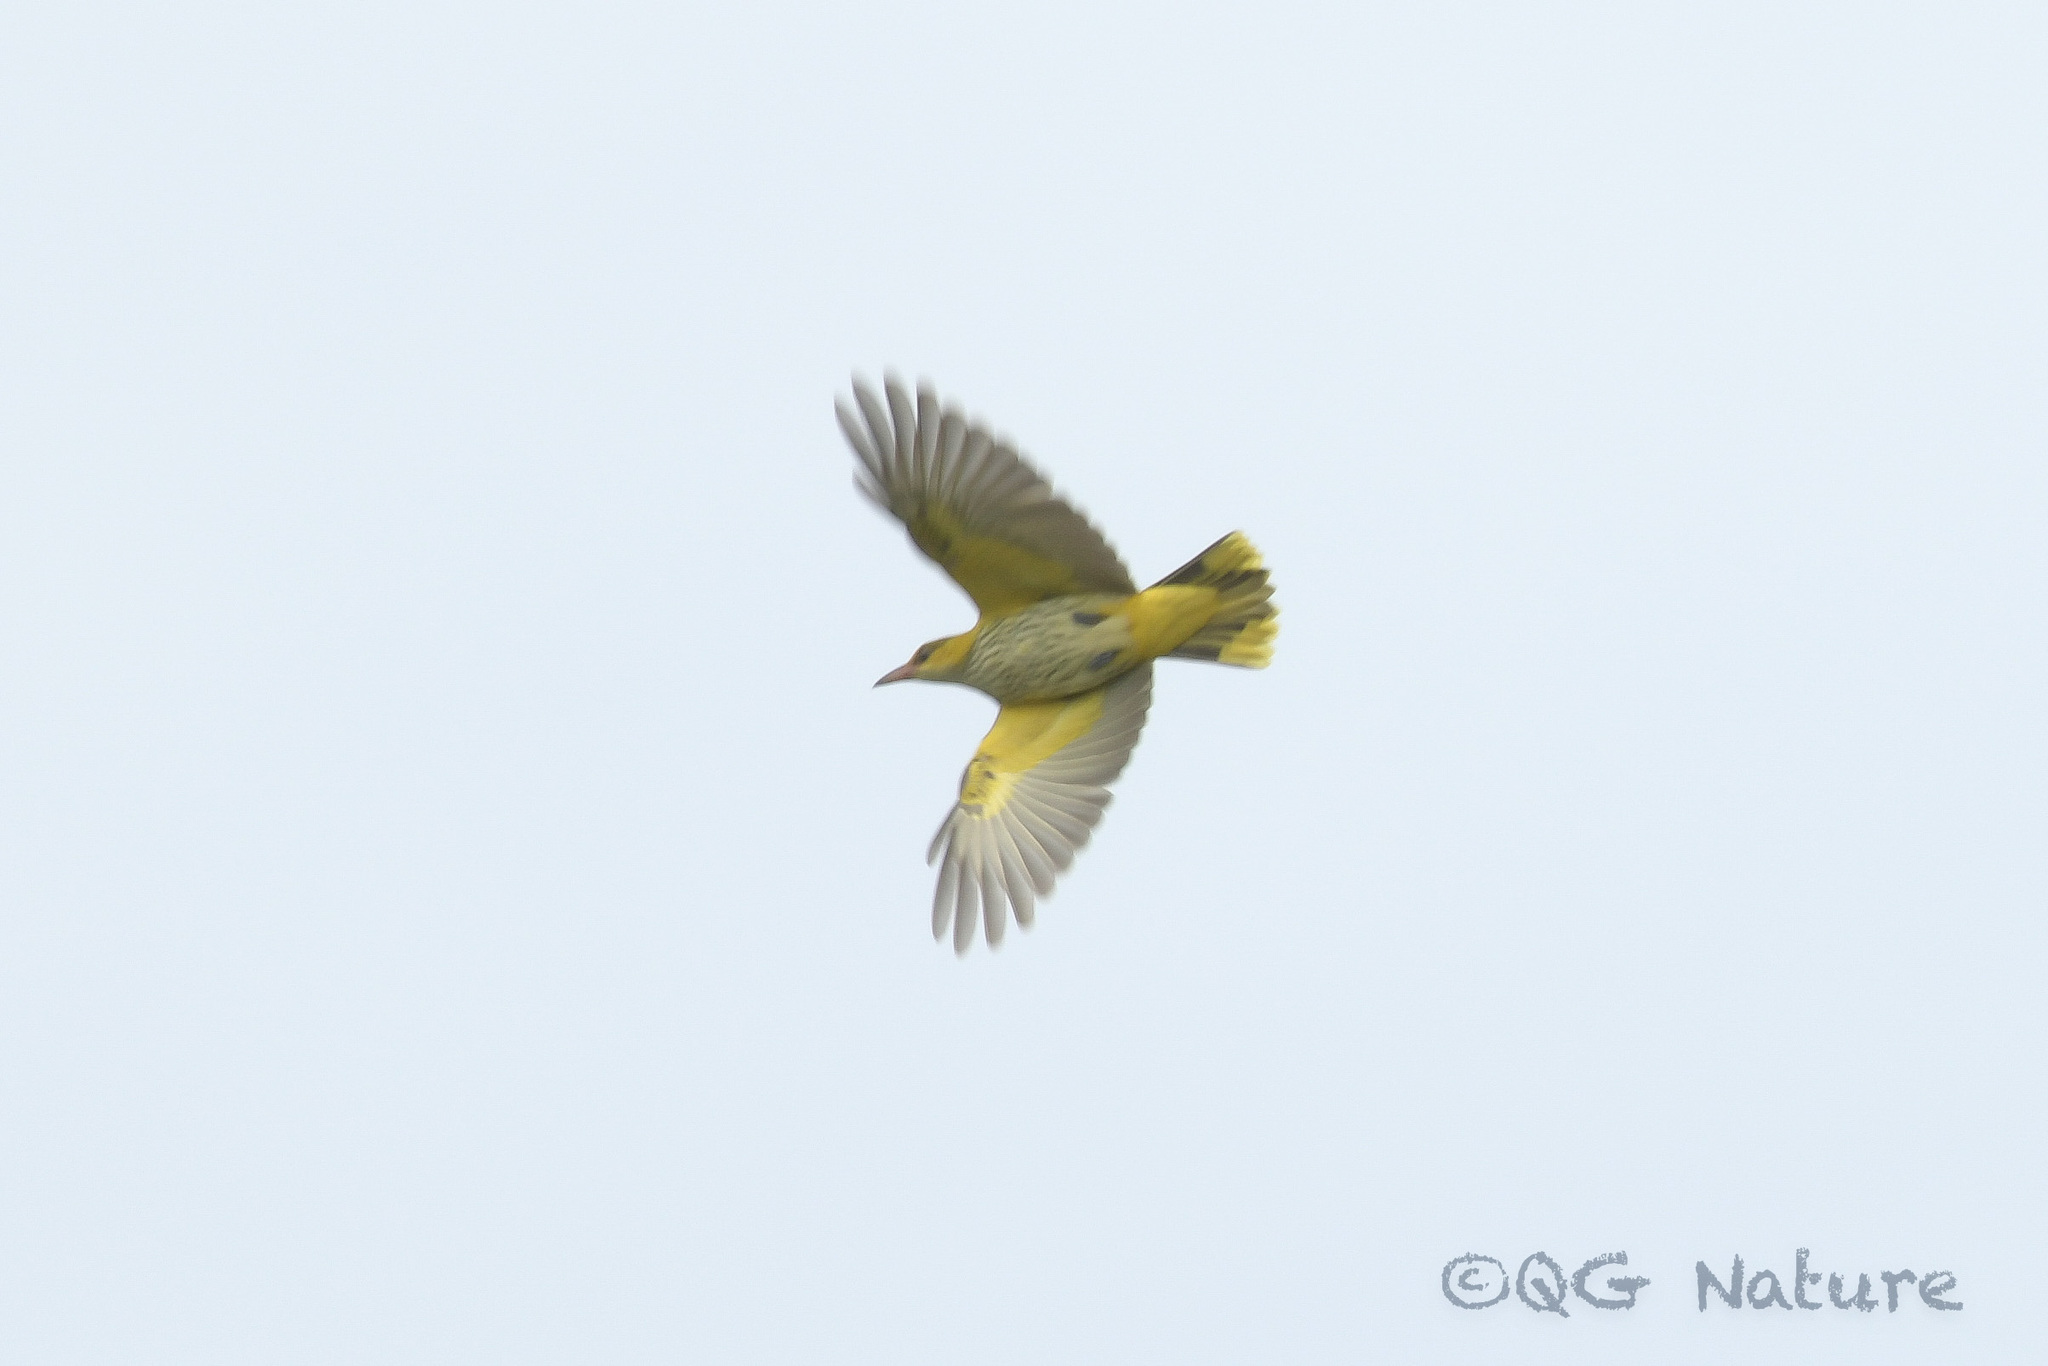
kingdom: Animalia
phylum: Chordata
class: Aves
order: Passeriformes
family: Oriolidae
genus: Oriolus
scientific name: Oriolus chinensis
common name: Black-naped oriole
